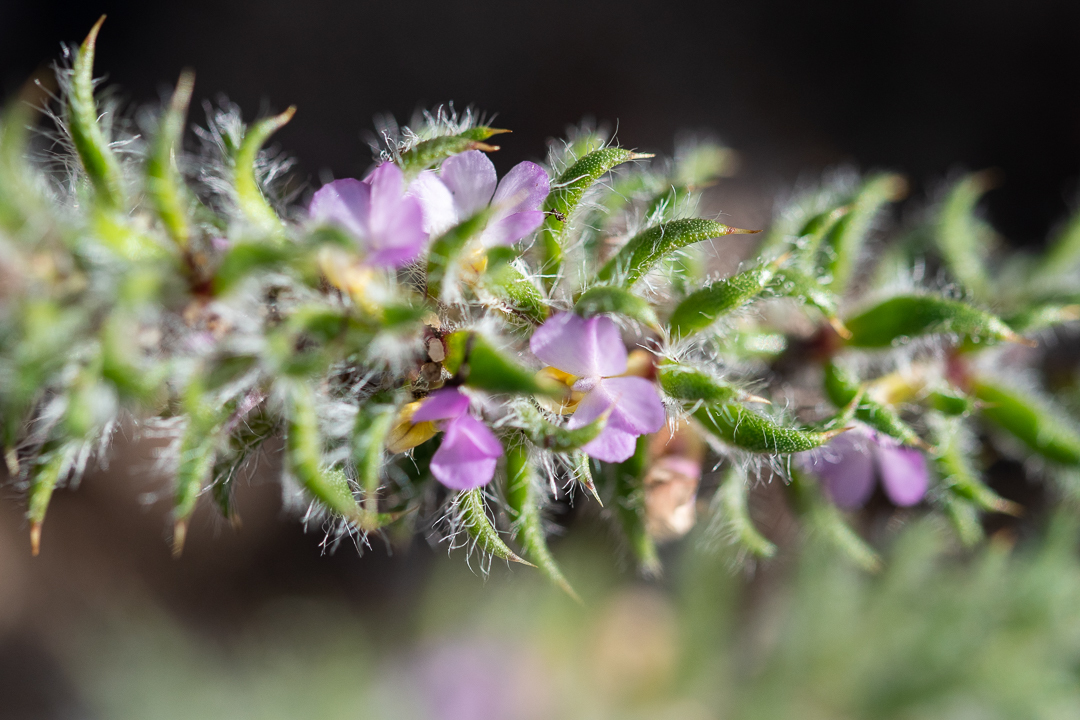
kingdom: Plantae
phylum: Tracheophyta
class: Magnoliopsida
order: Fabales
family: Polygalaceae
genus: Muraltia
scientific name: Muraltia aspalatha
